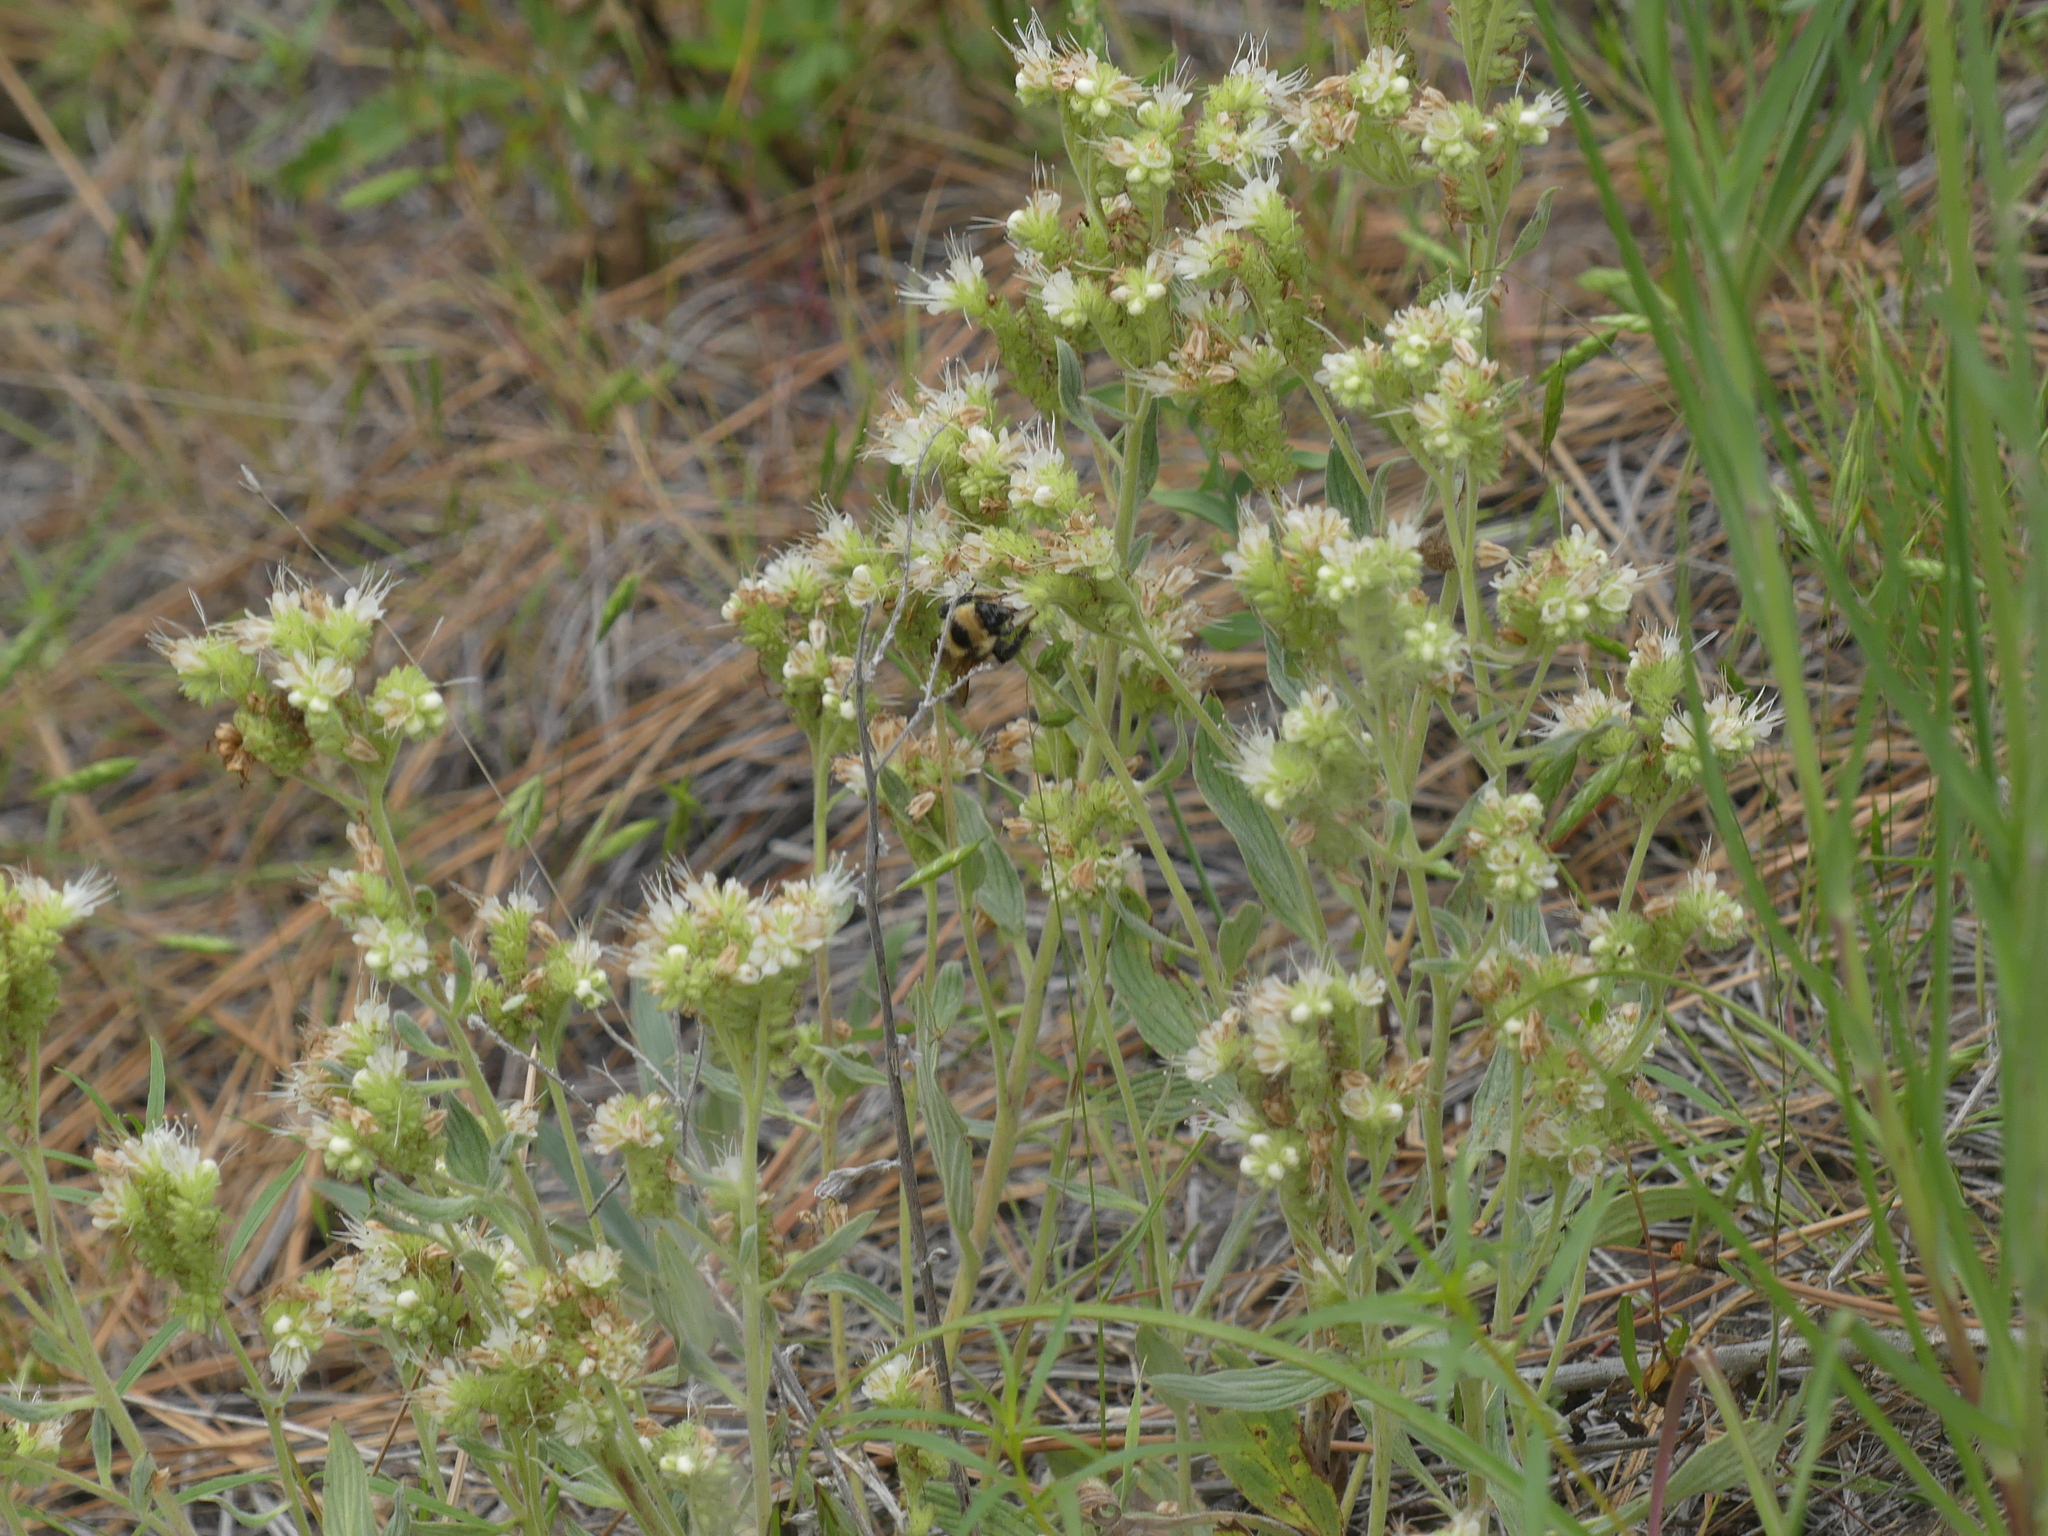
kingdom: Animalia
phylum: Arthropoda
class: Insecta
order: Hymenoptera
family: Apidae
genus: Bombus
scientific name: Bombus rufocinctus
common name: Red-belted bumble bee
